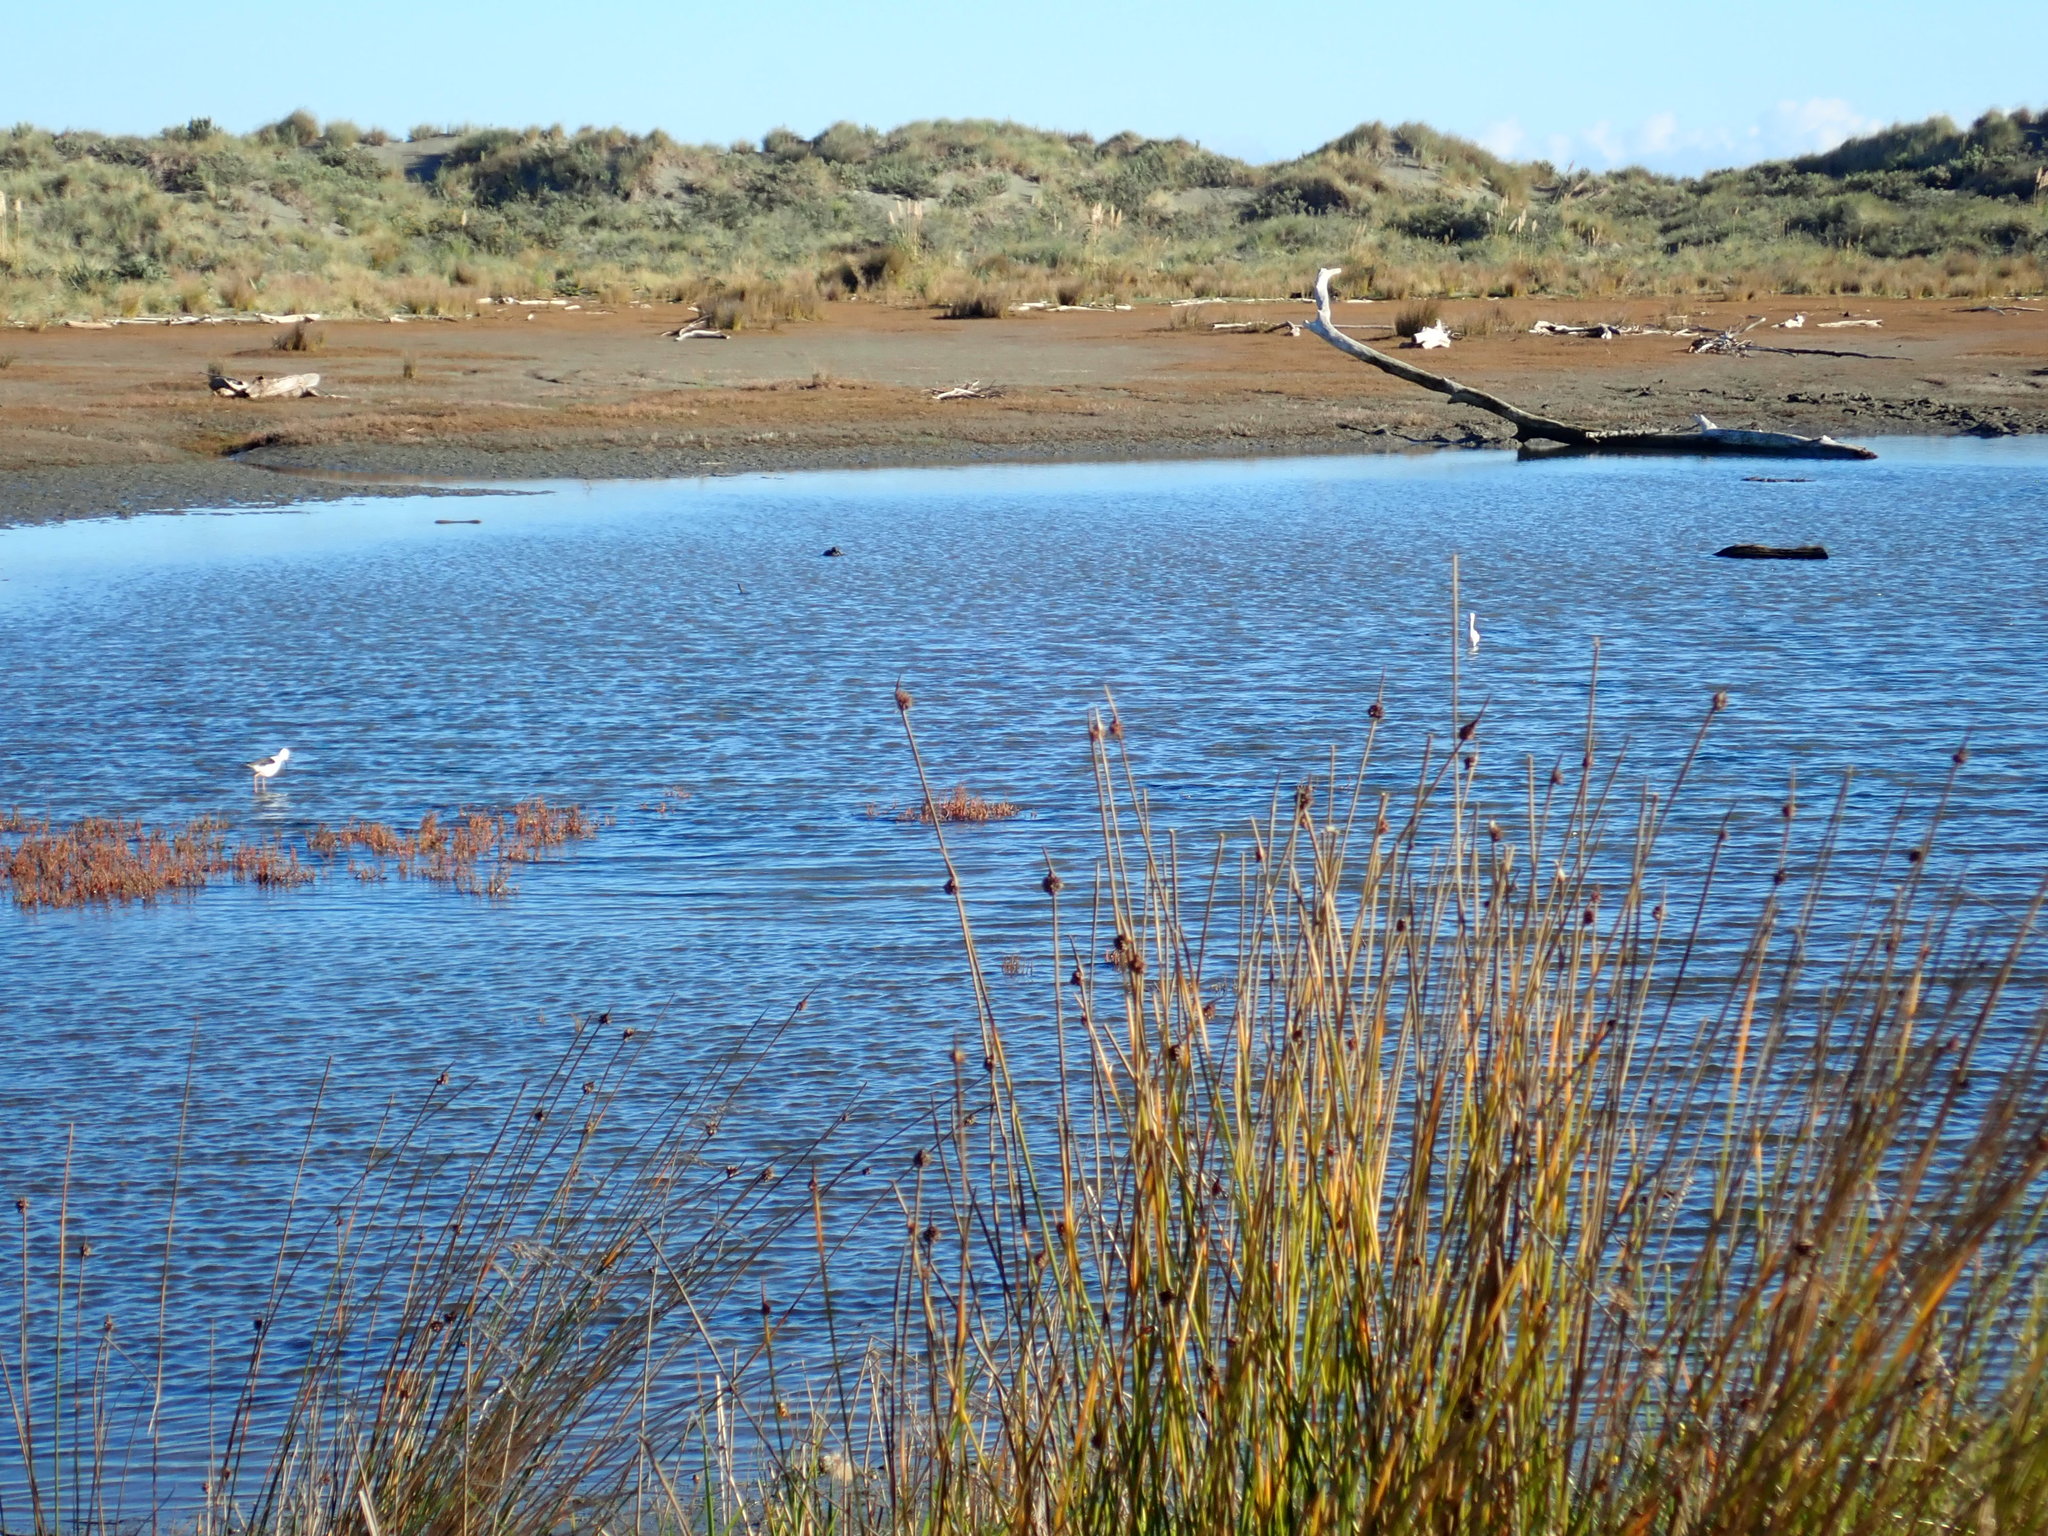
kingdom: Animalia
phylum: Chordata
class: Aves
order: Charadriiformes
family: Recurvirostridae
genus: Himantopus
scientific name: Himantopus leucocephalus
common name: White-headed stilt
